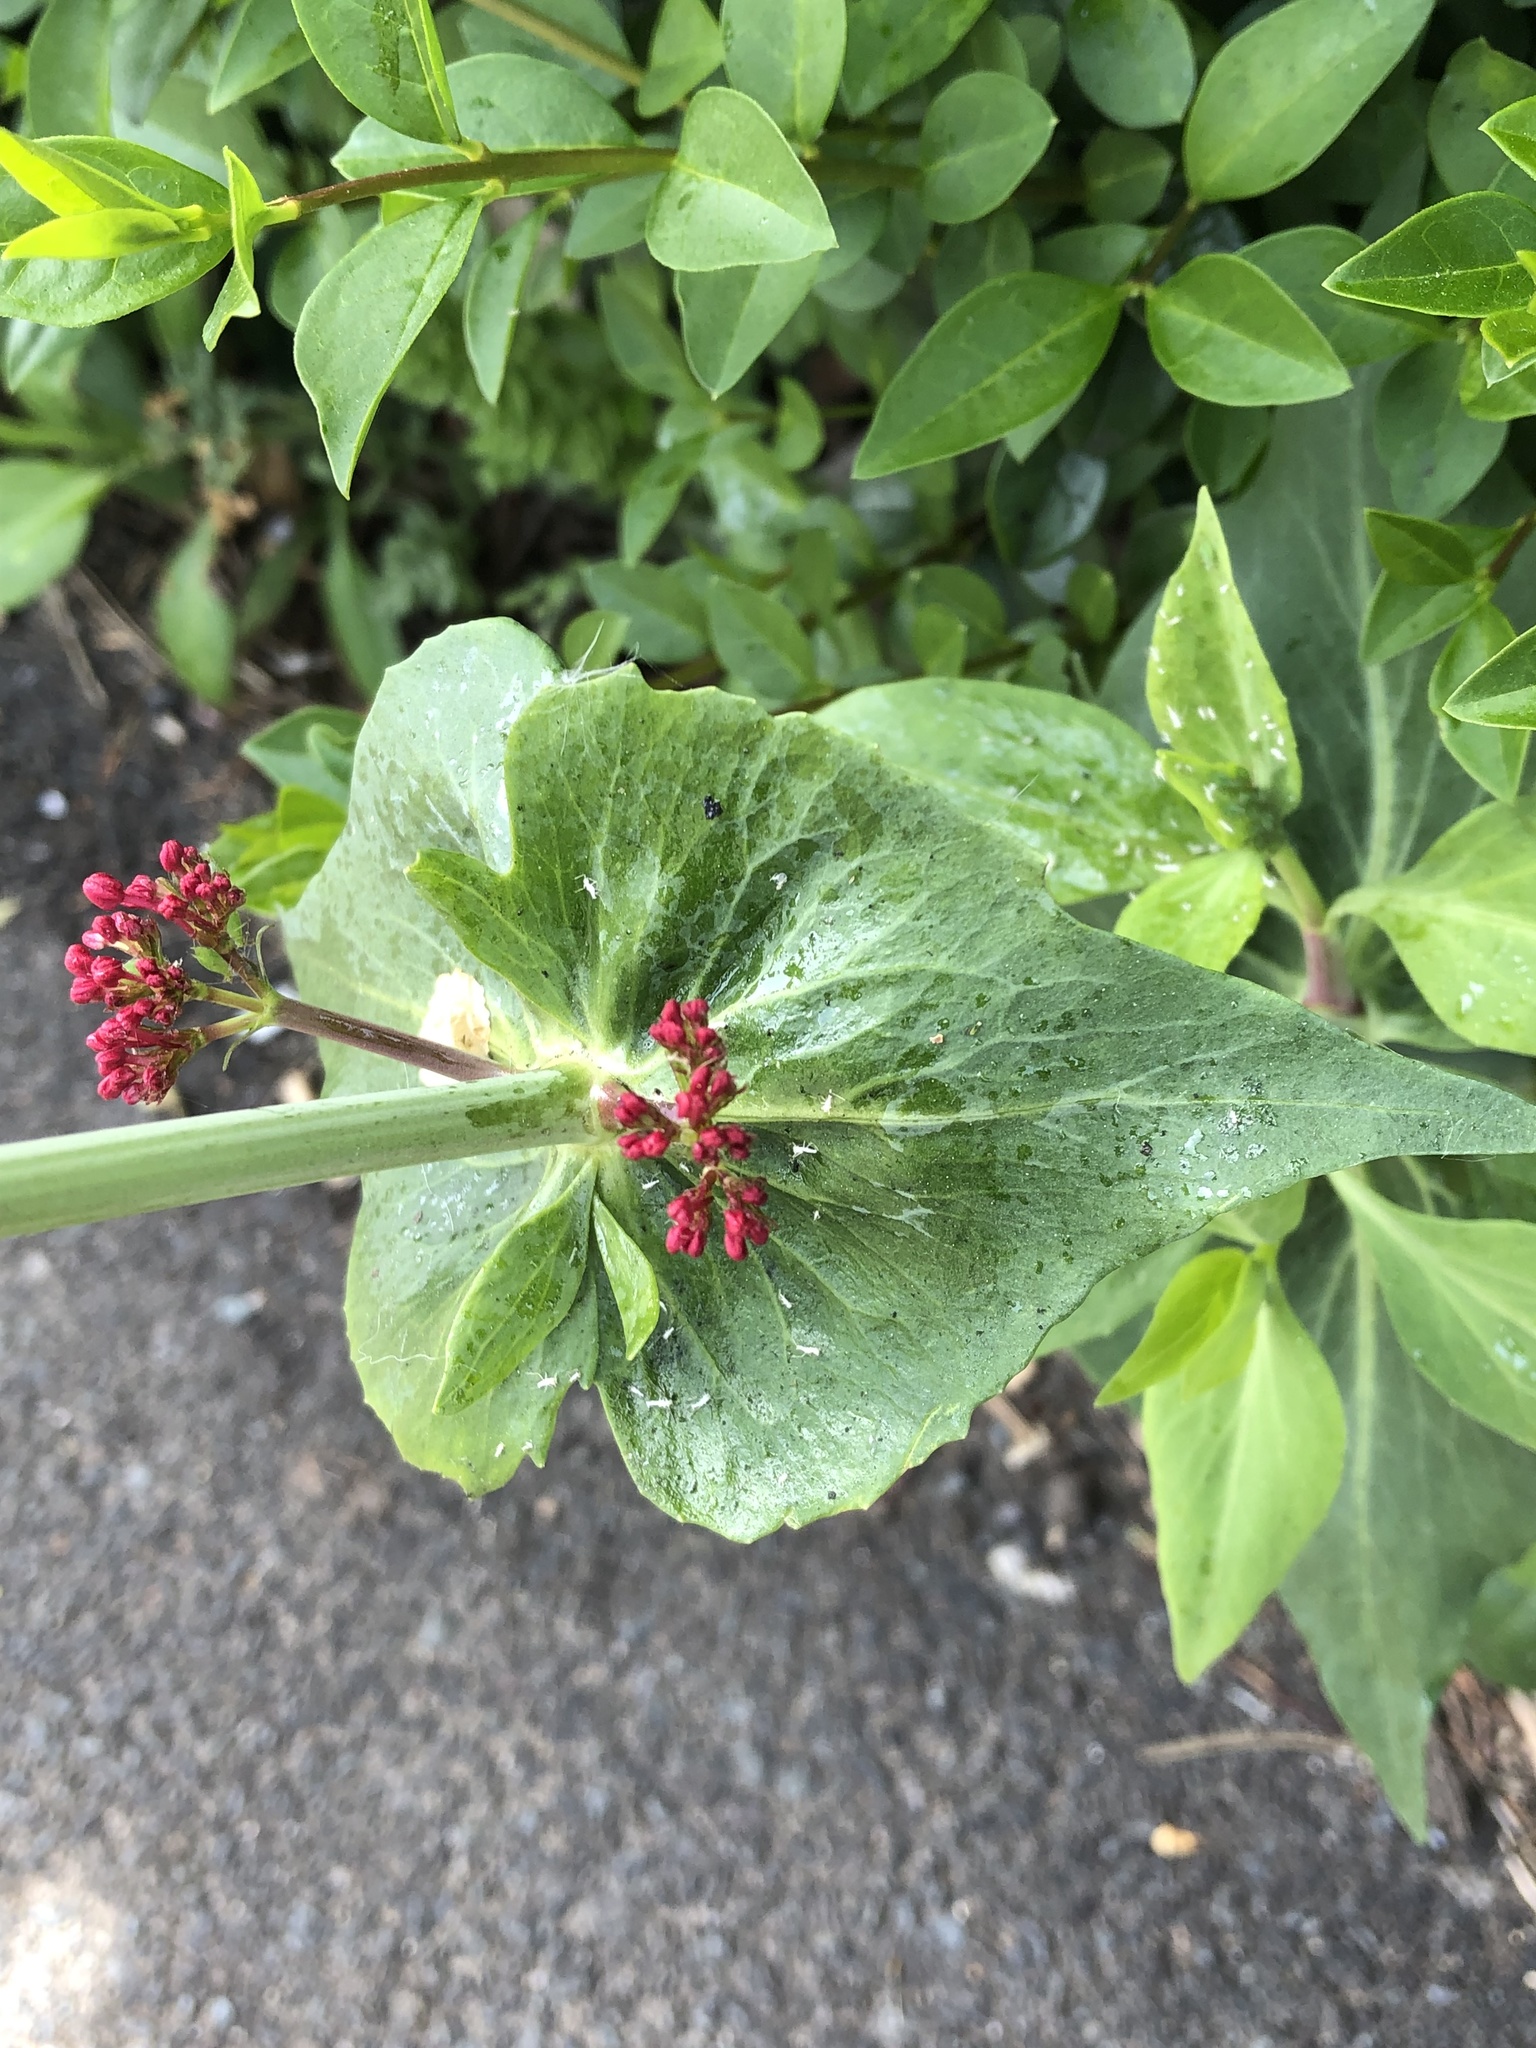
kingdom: Plantae
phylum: Tracheophyta
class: Magnoliopsida
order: Dipsacales
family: Caprifoliaceae
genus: Centranthus
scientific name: Centranthus ruber
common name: Red valerian
